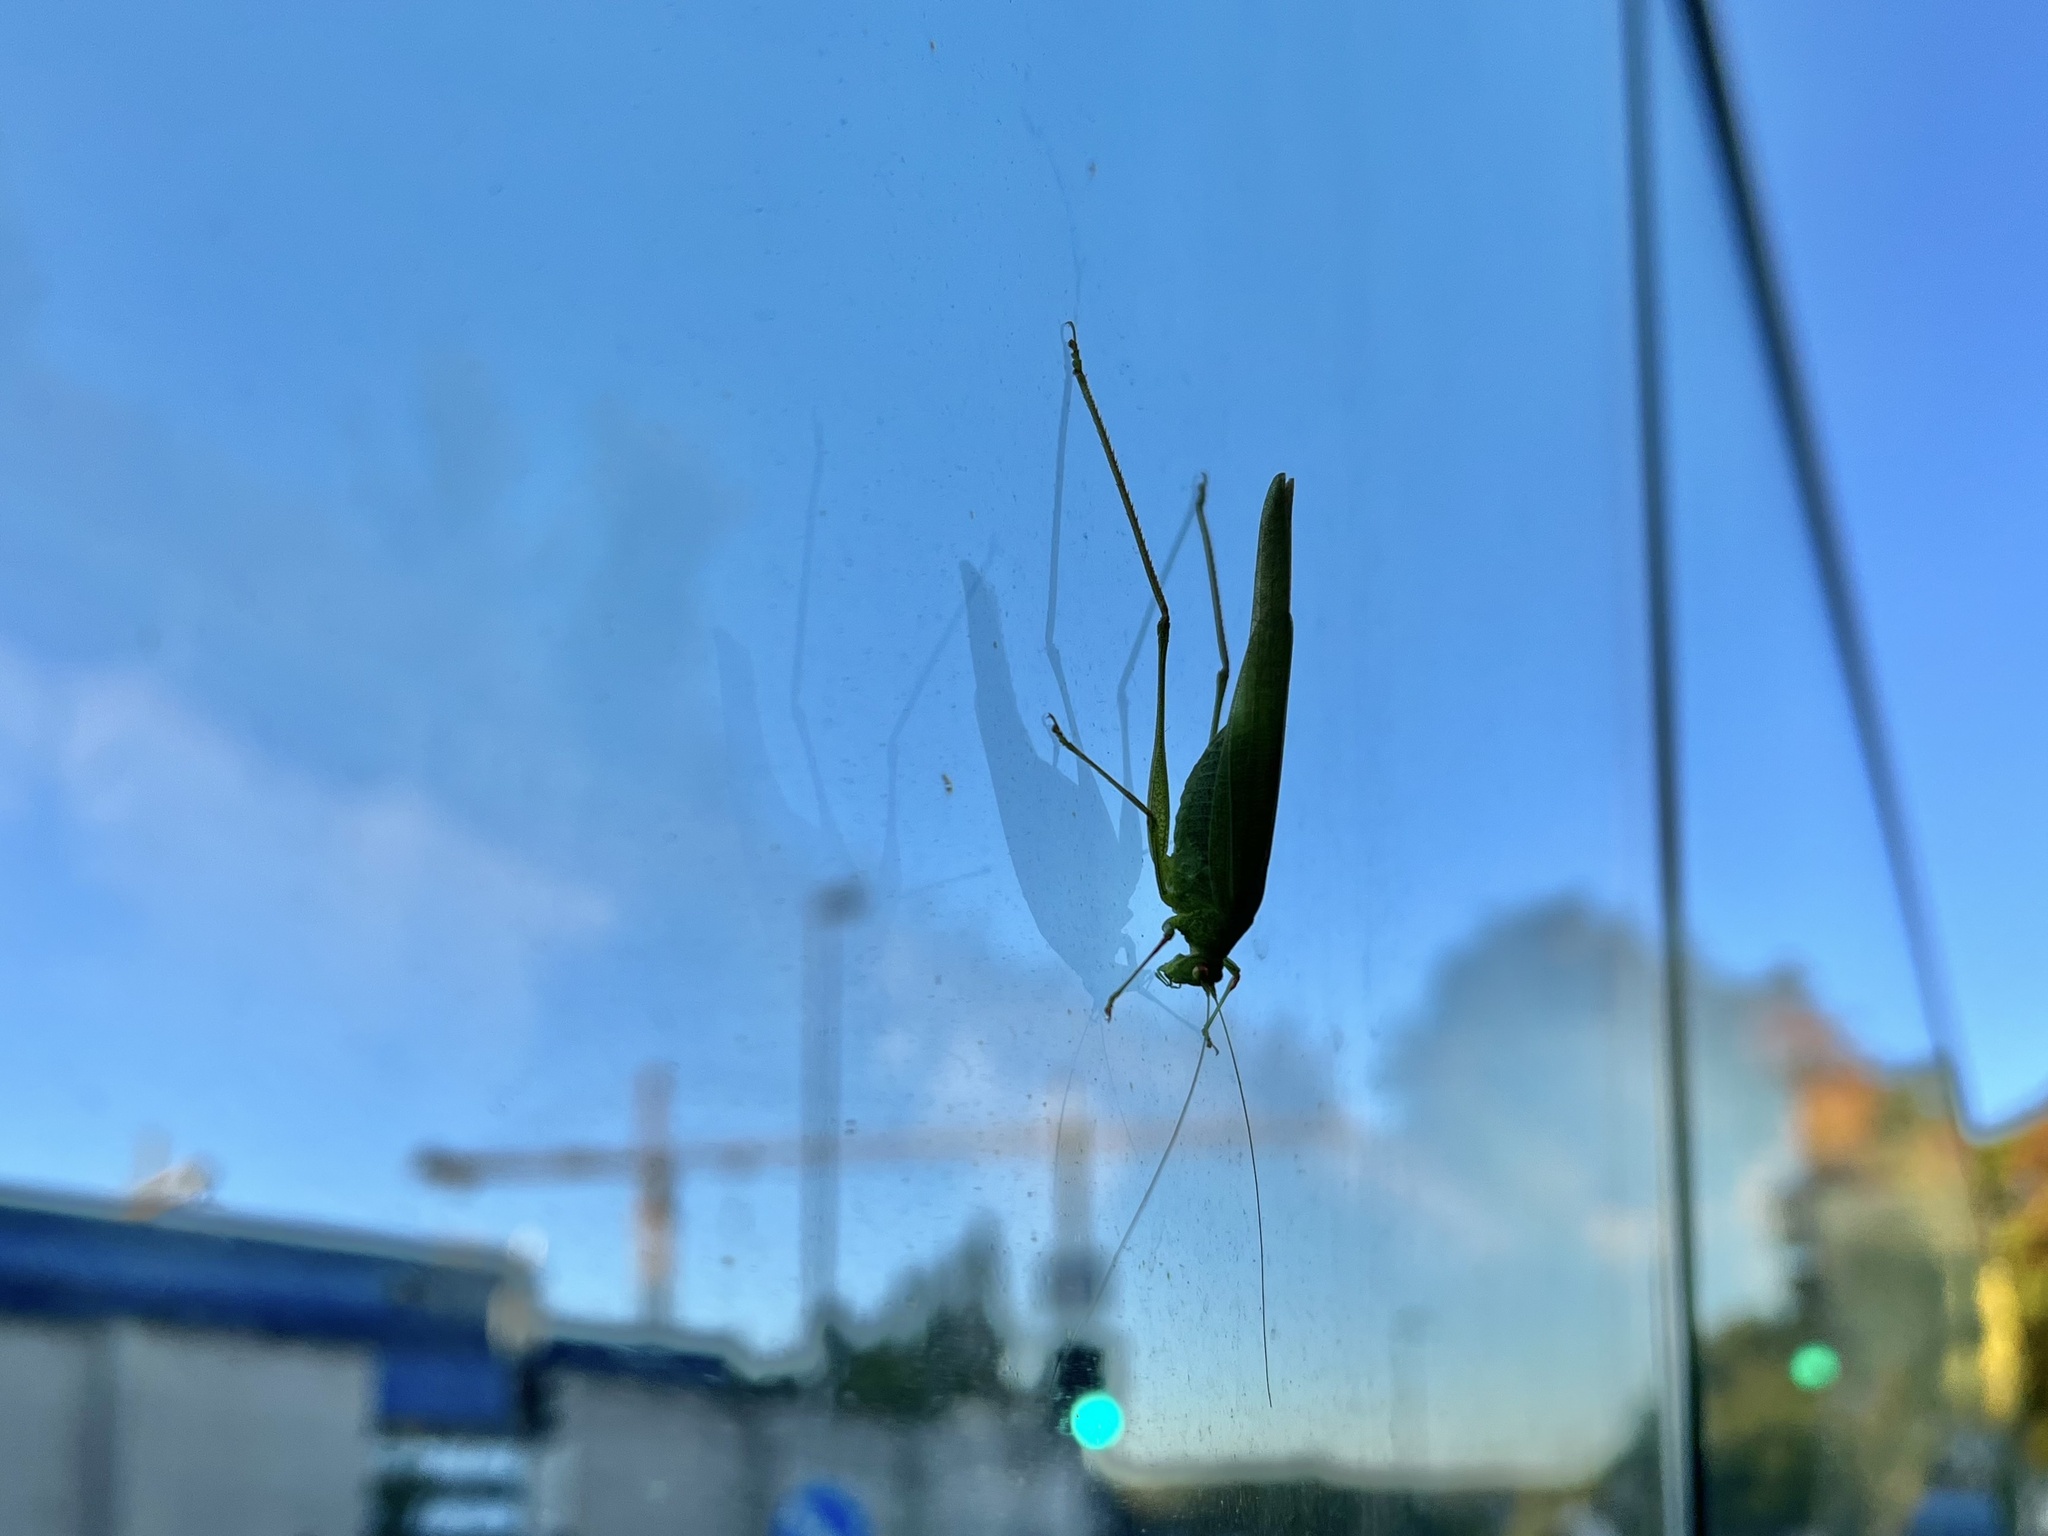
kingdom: Animalia
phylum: Arthropoda
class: Insecta
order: Orthoptera
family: Tettigoniidae
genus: Phaneroptera
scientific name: Phaneroptera nana
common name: Southern sickle bush-cricket
